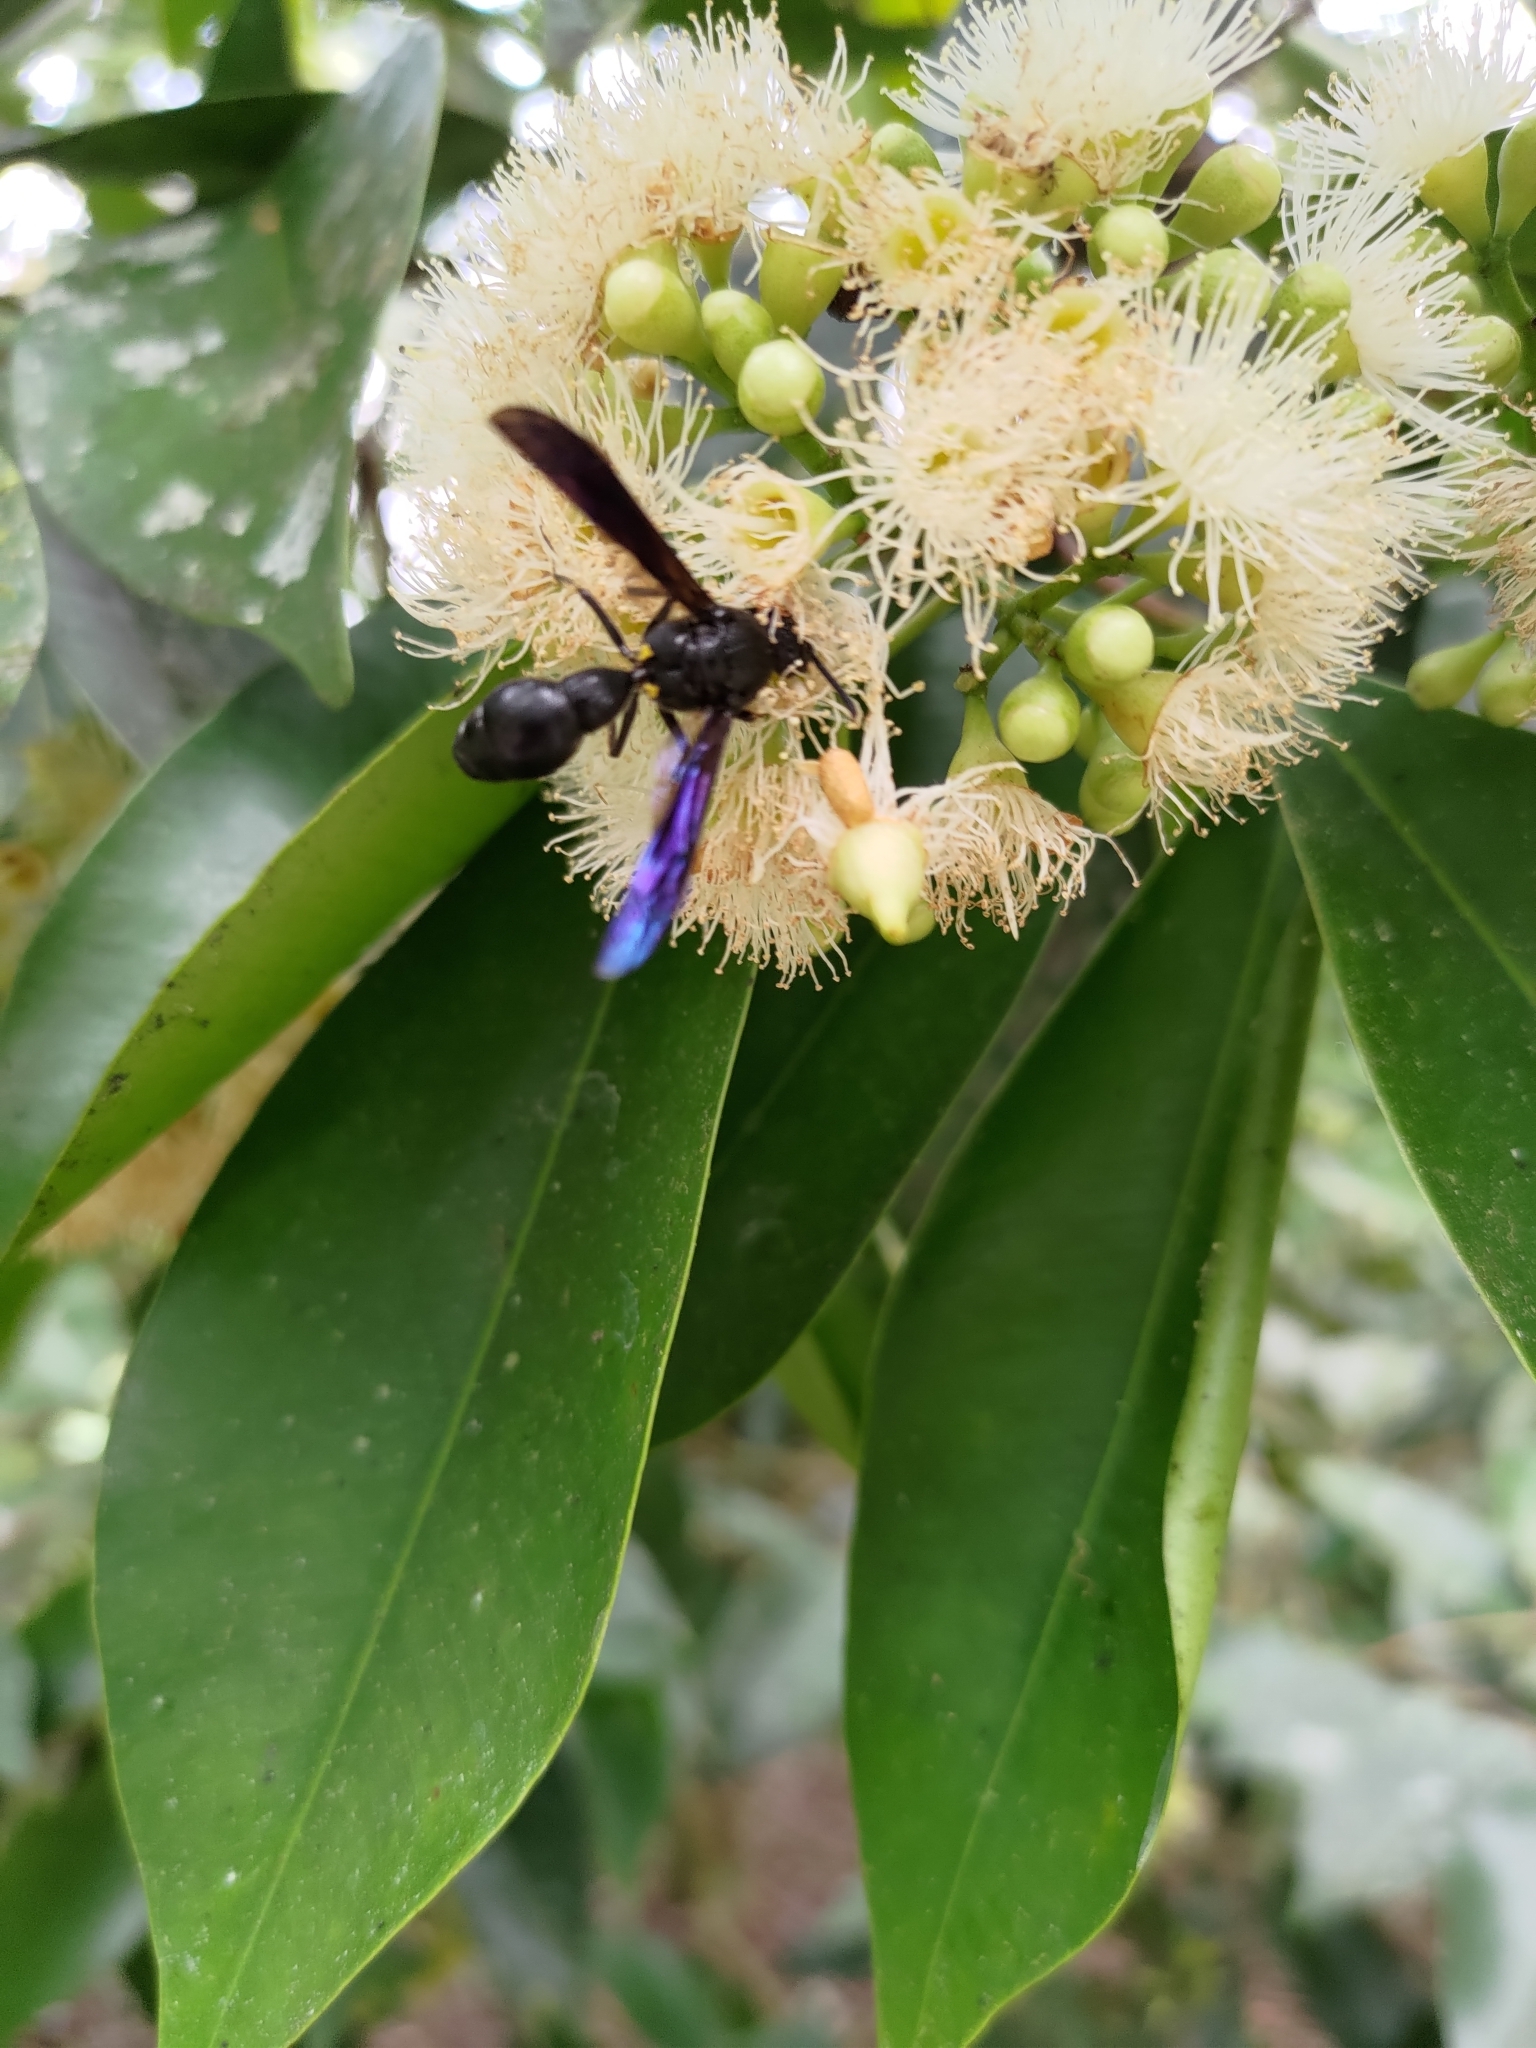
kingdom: Animalia
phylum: Arthropoda
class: Insecta
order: Hymenoptera
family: Eumenidae
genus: Pseudozumia
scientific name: Pseudozumia indosinensis
